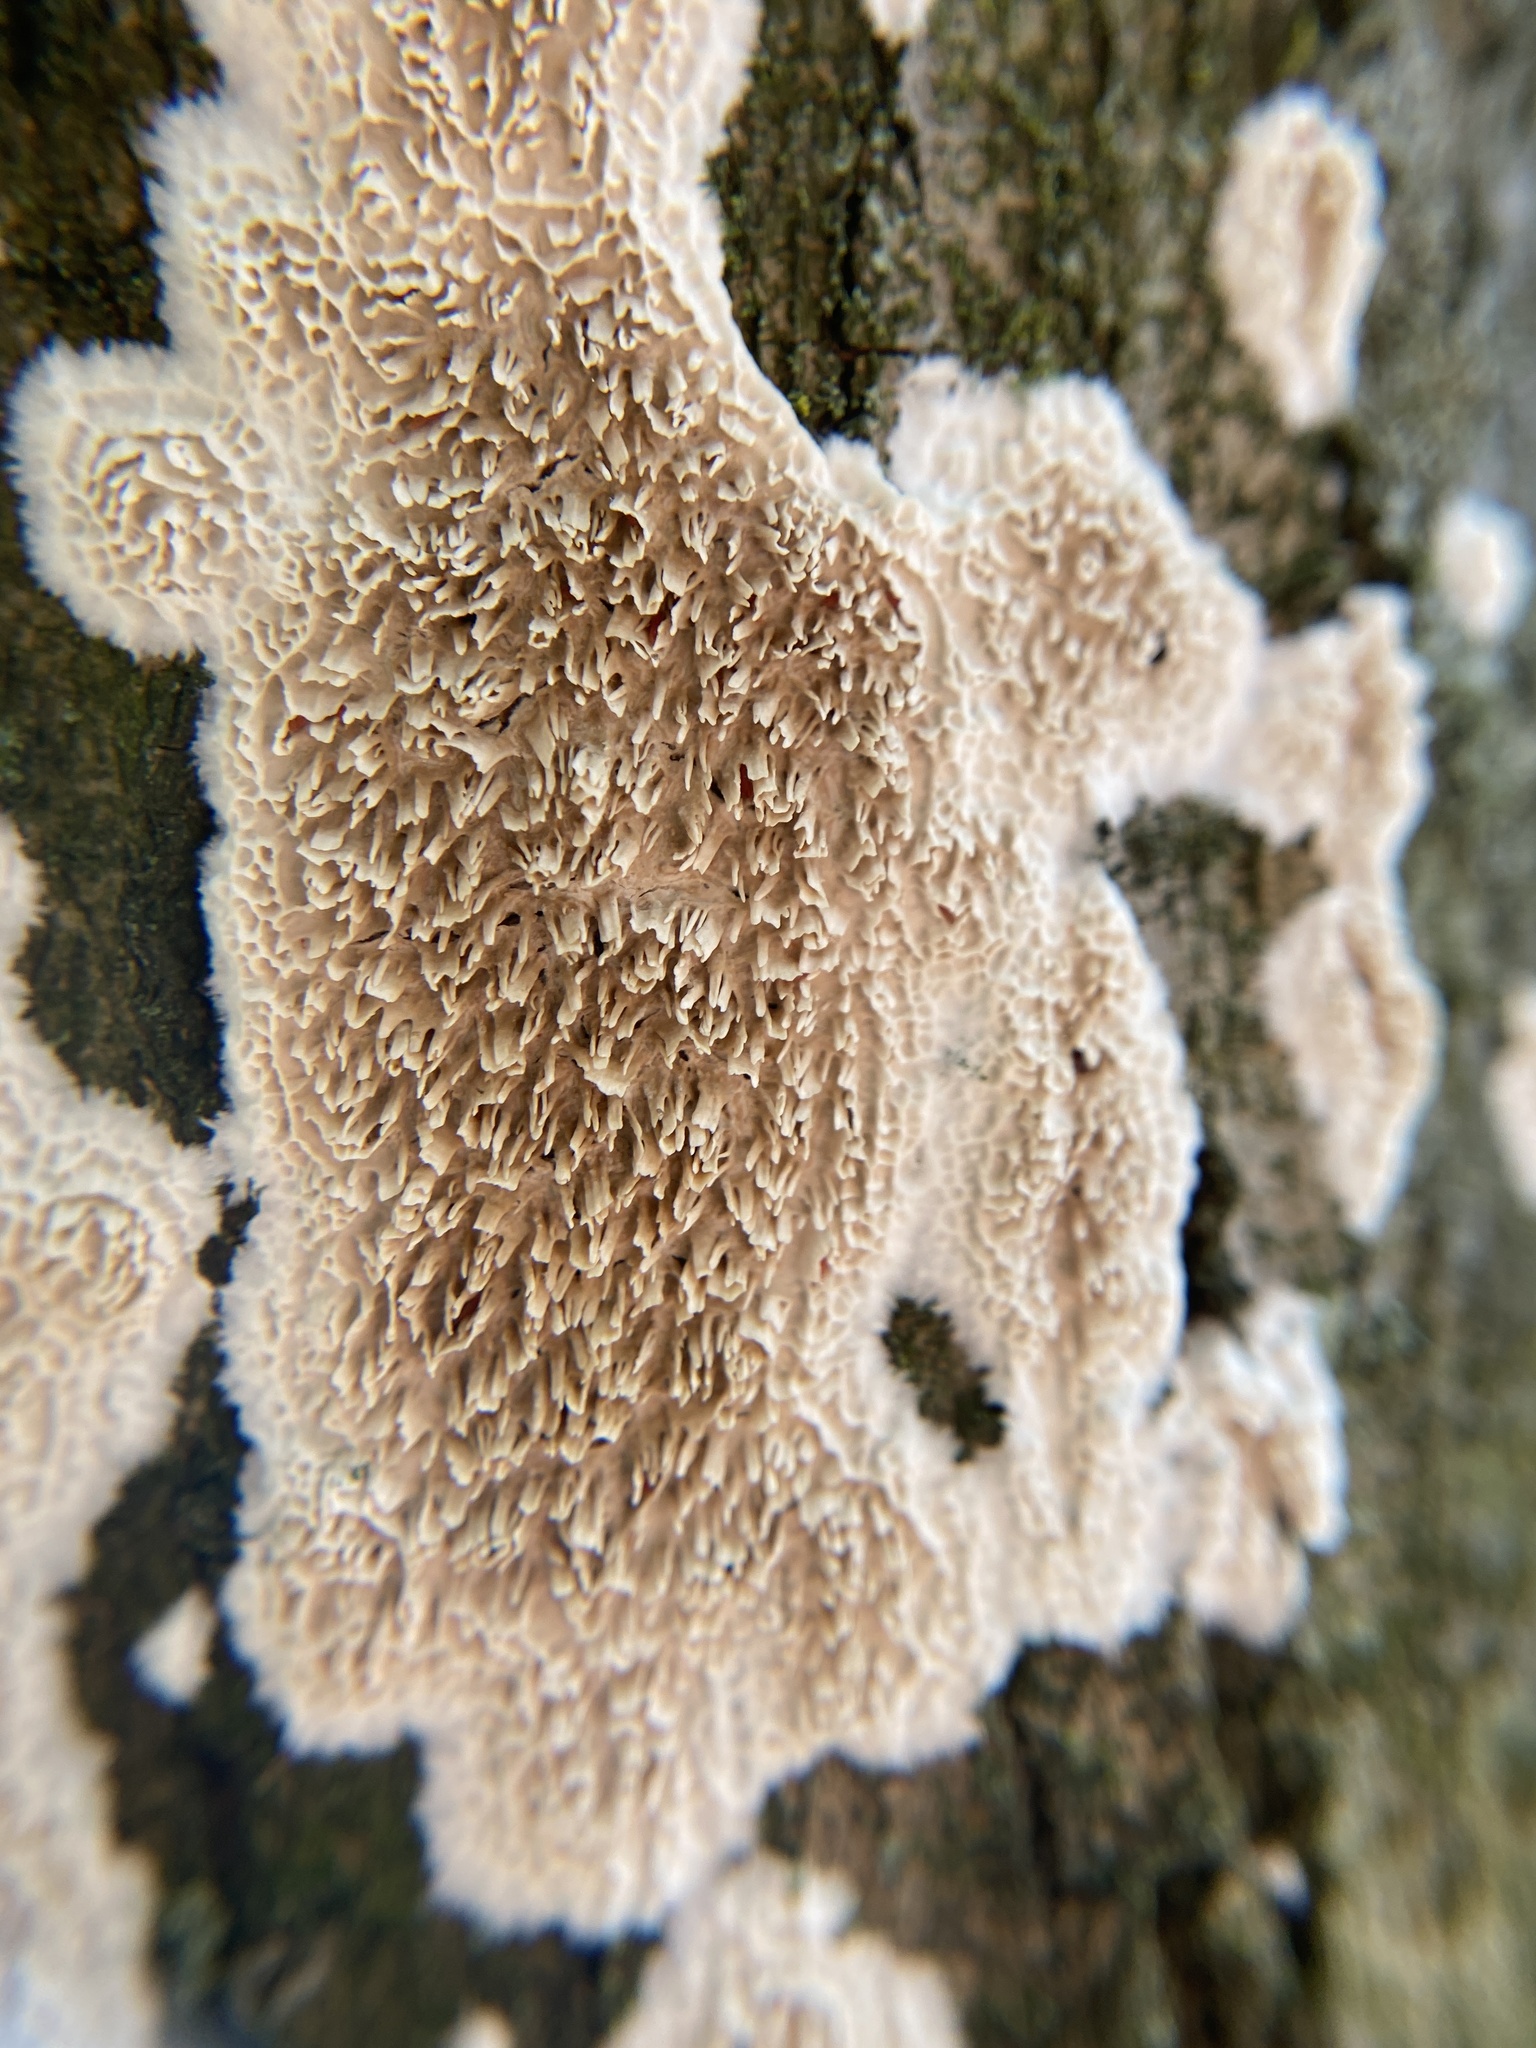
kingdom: Fungi
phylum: Basidiomycota
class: Agaricomycetes
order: Polyporales
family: Irpicaceae
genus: Irpex
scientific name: Irpex lacteus
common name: Milk-white toothed polypore
